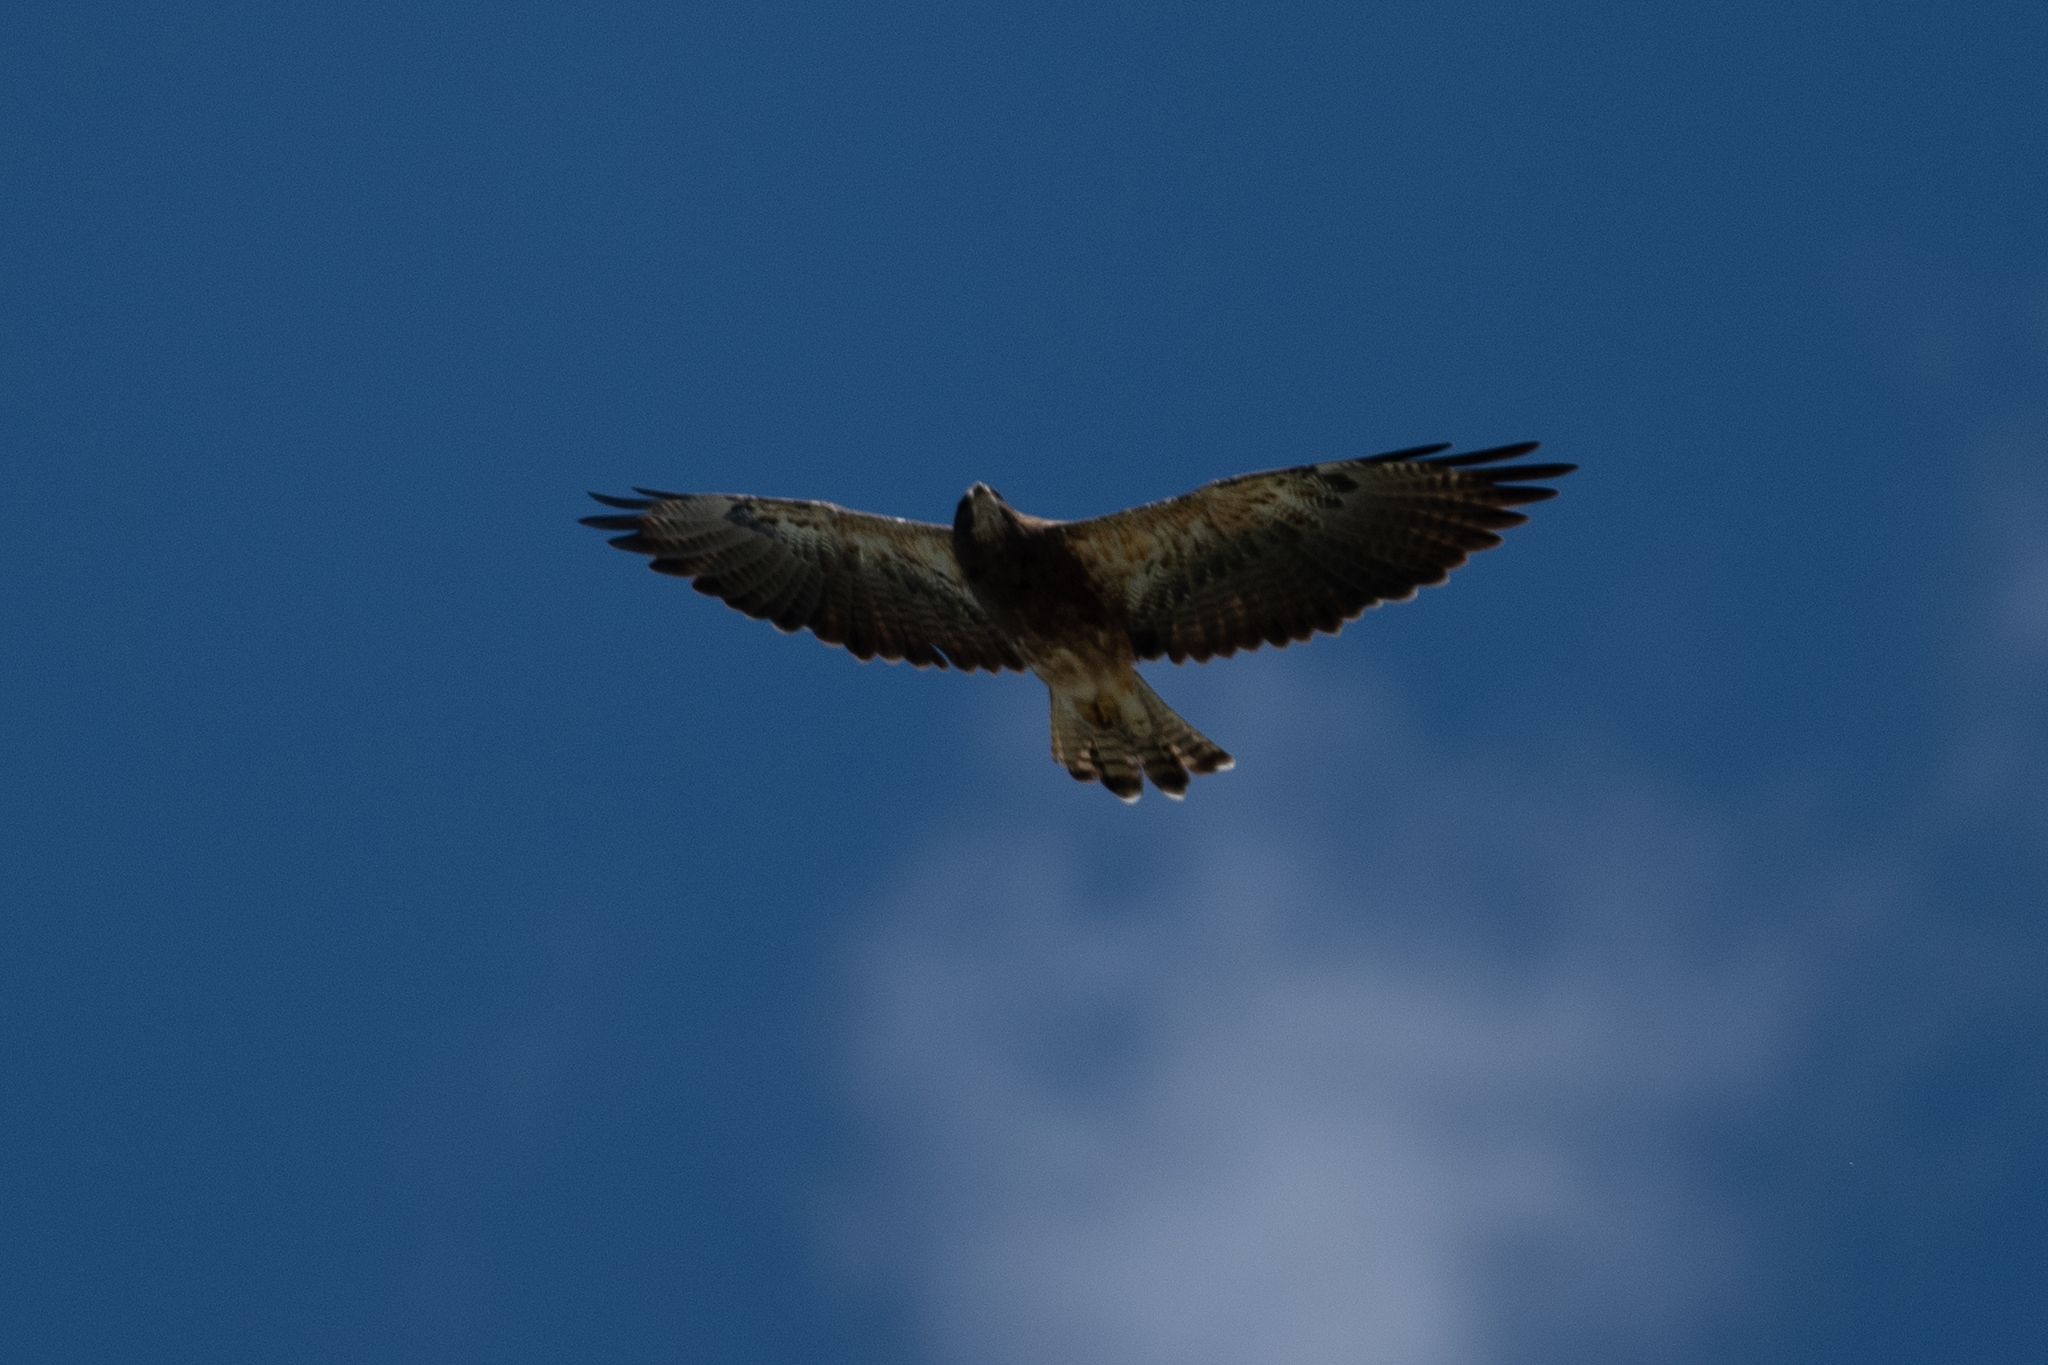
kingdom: Animalia
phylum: Chordata
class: Aves
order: Accipitriformes
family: Accipitridae
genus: Buteo
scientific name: Buteo swainsoni
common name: Swainson's hawk
